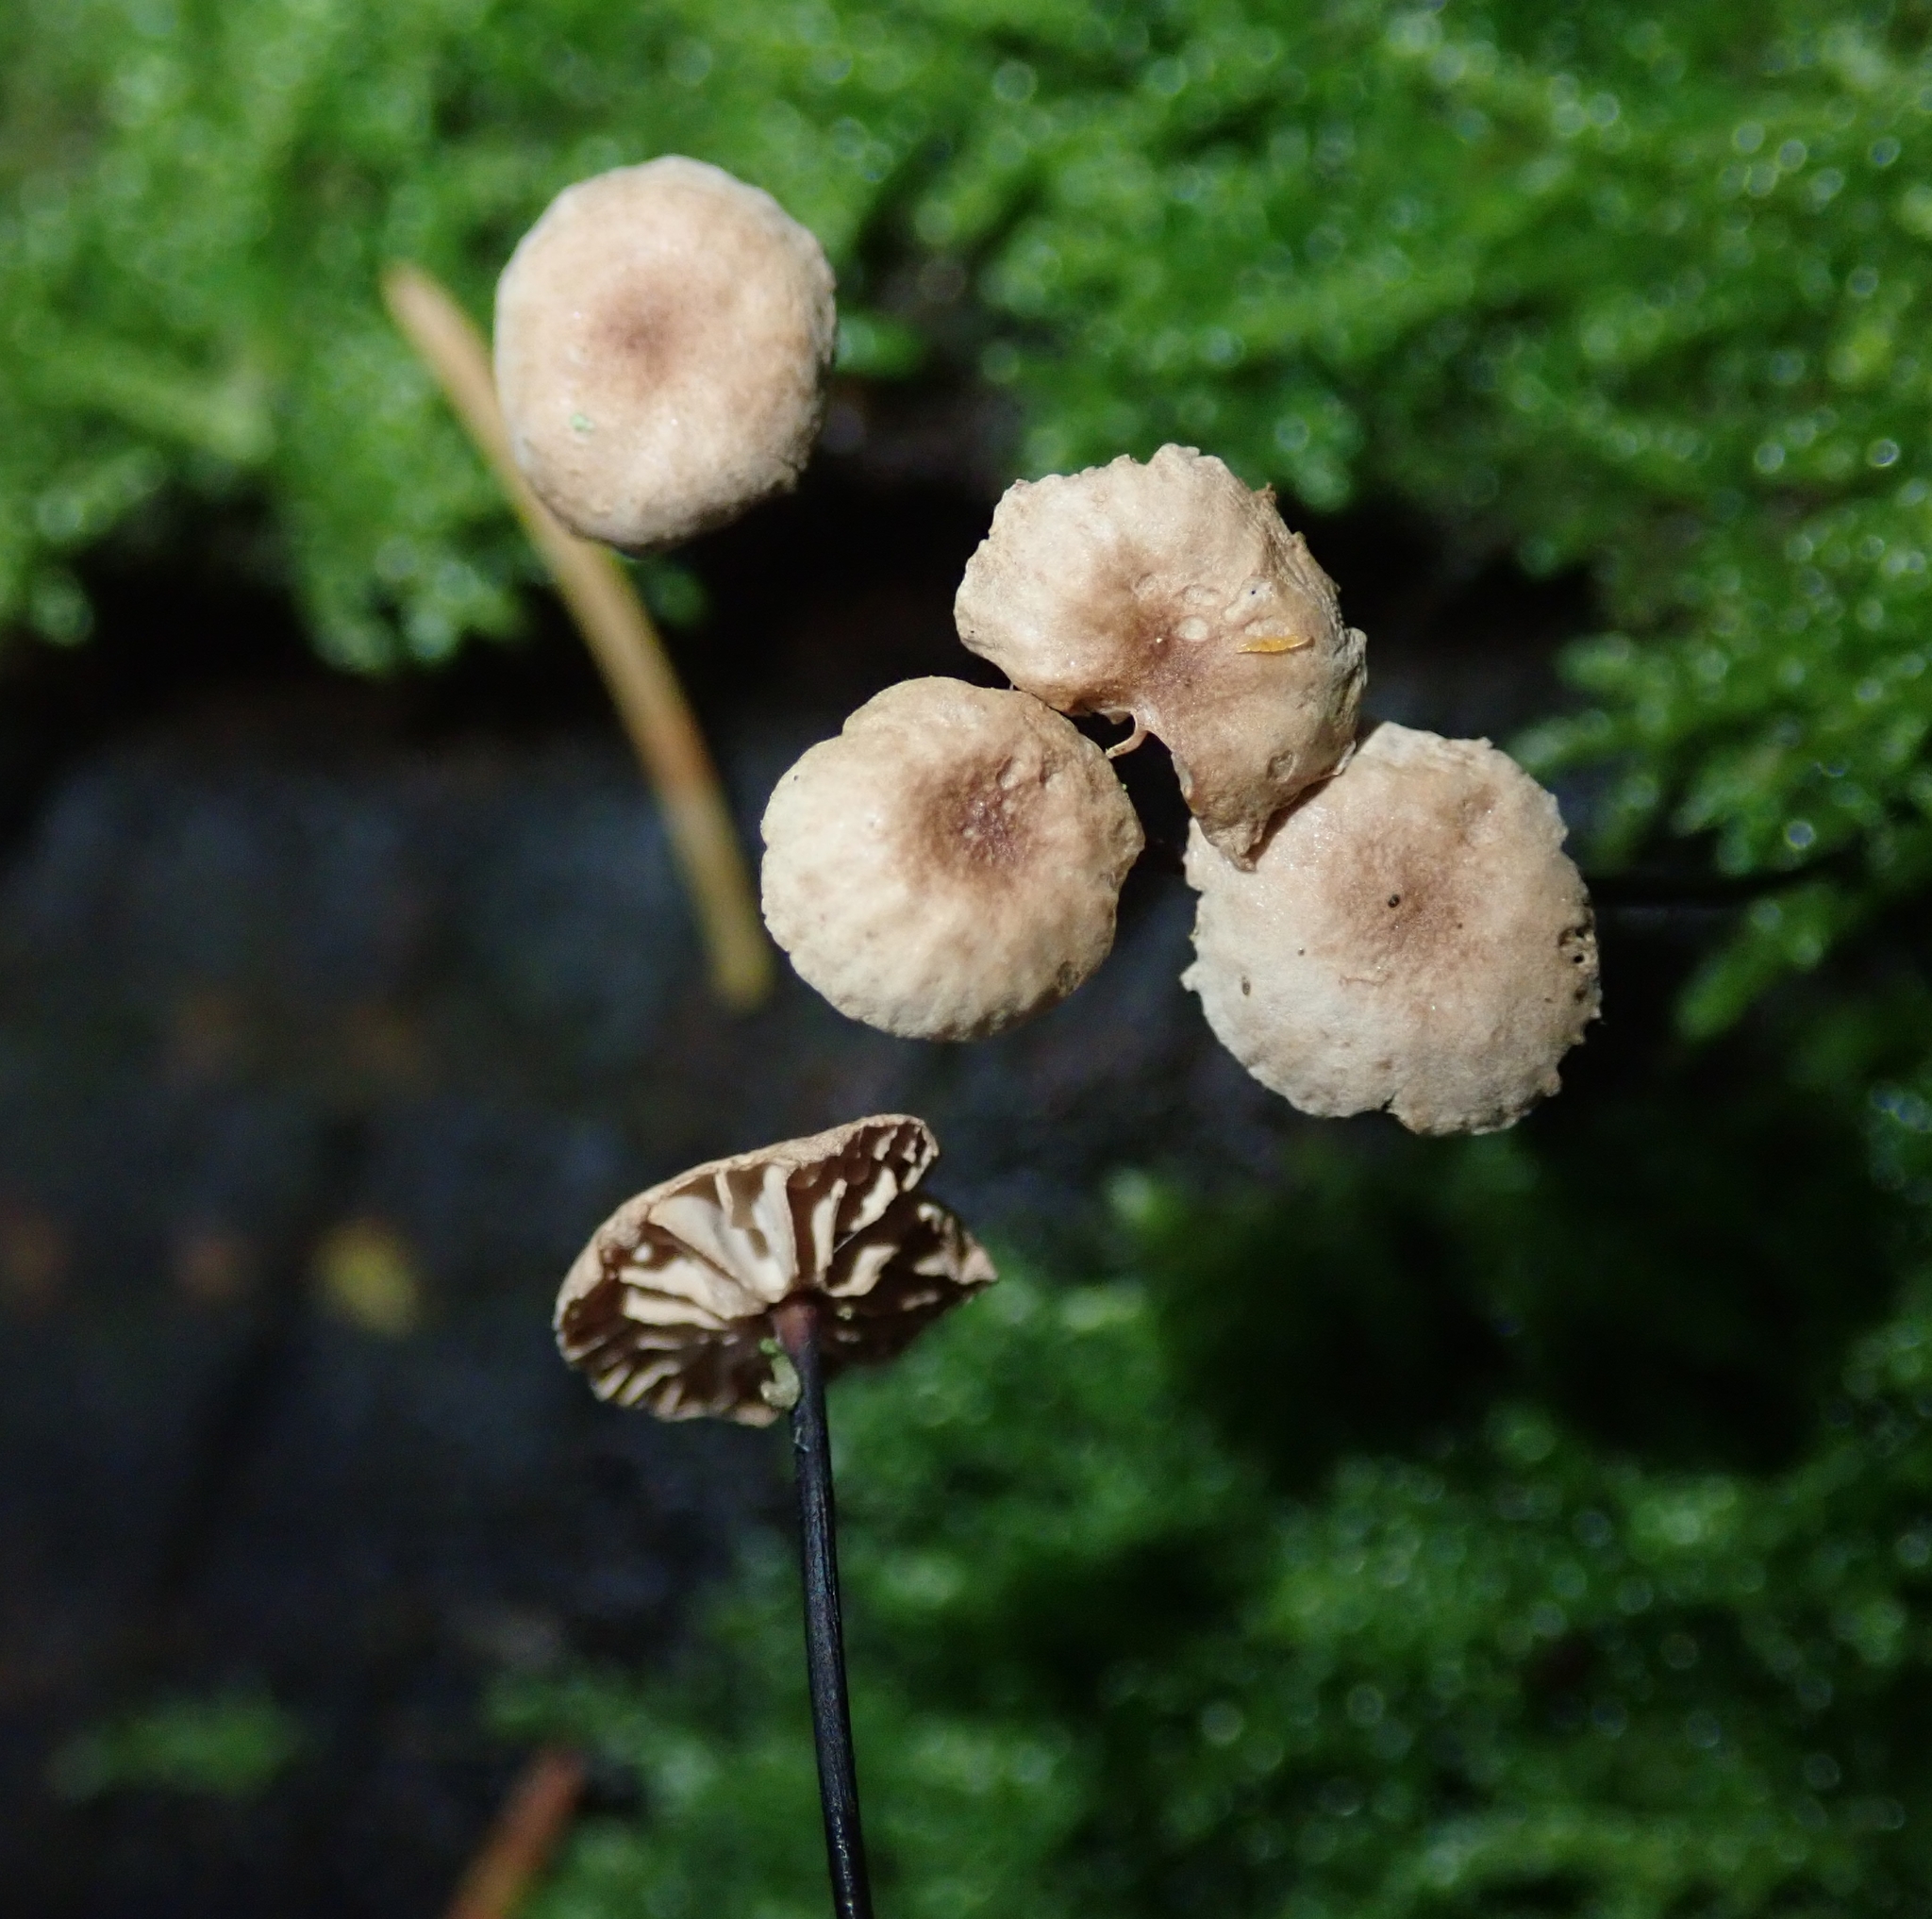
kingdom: Fungi
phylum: Basidiomycota
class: Agaricomycetes
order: Agaricales
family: Marasmiaceae
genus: Marasmius
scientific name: Marasmius rotula
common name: Collared parachute
